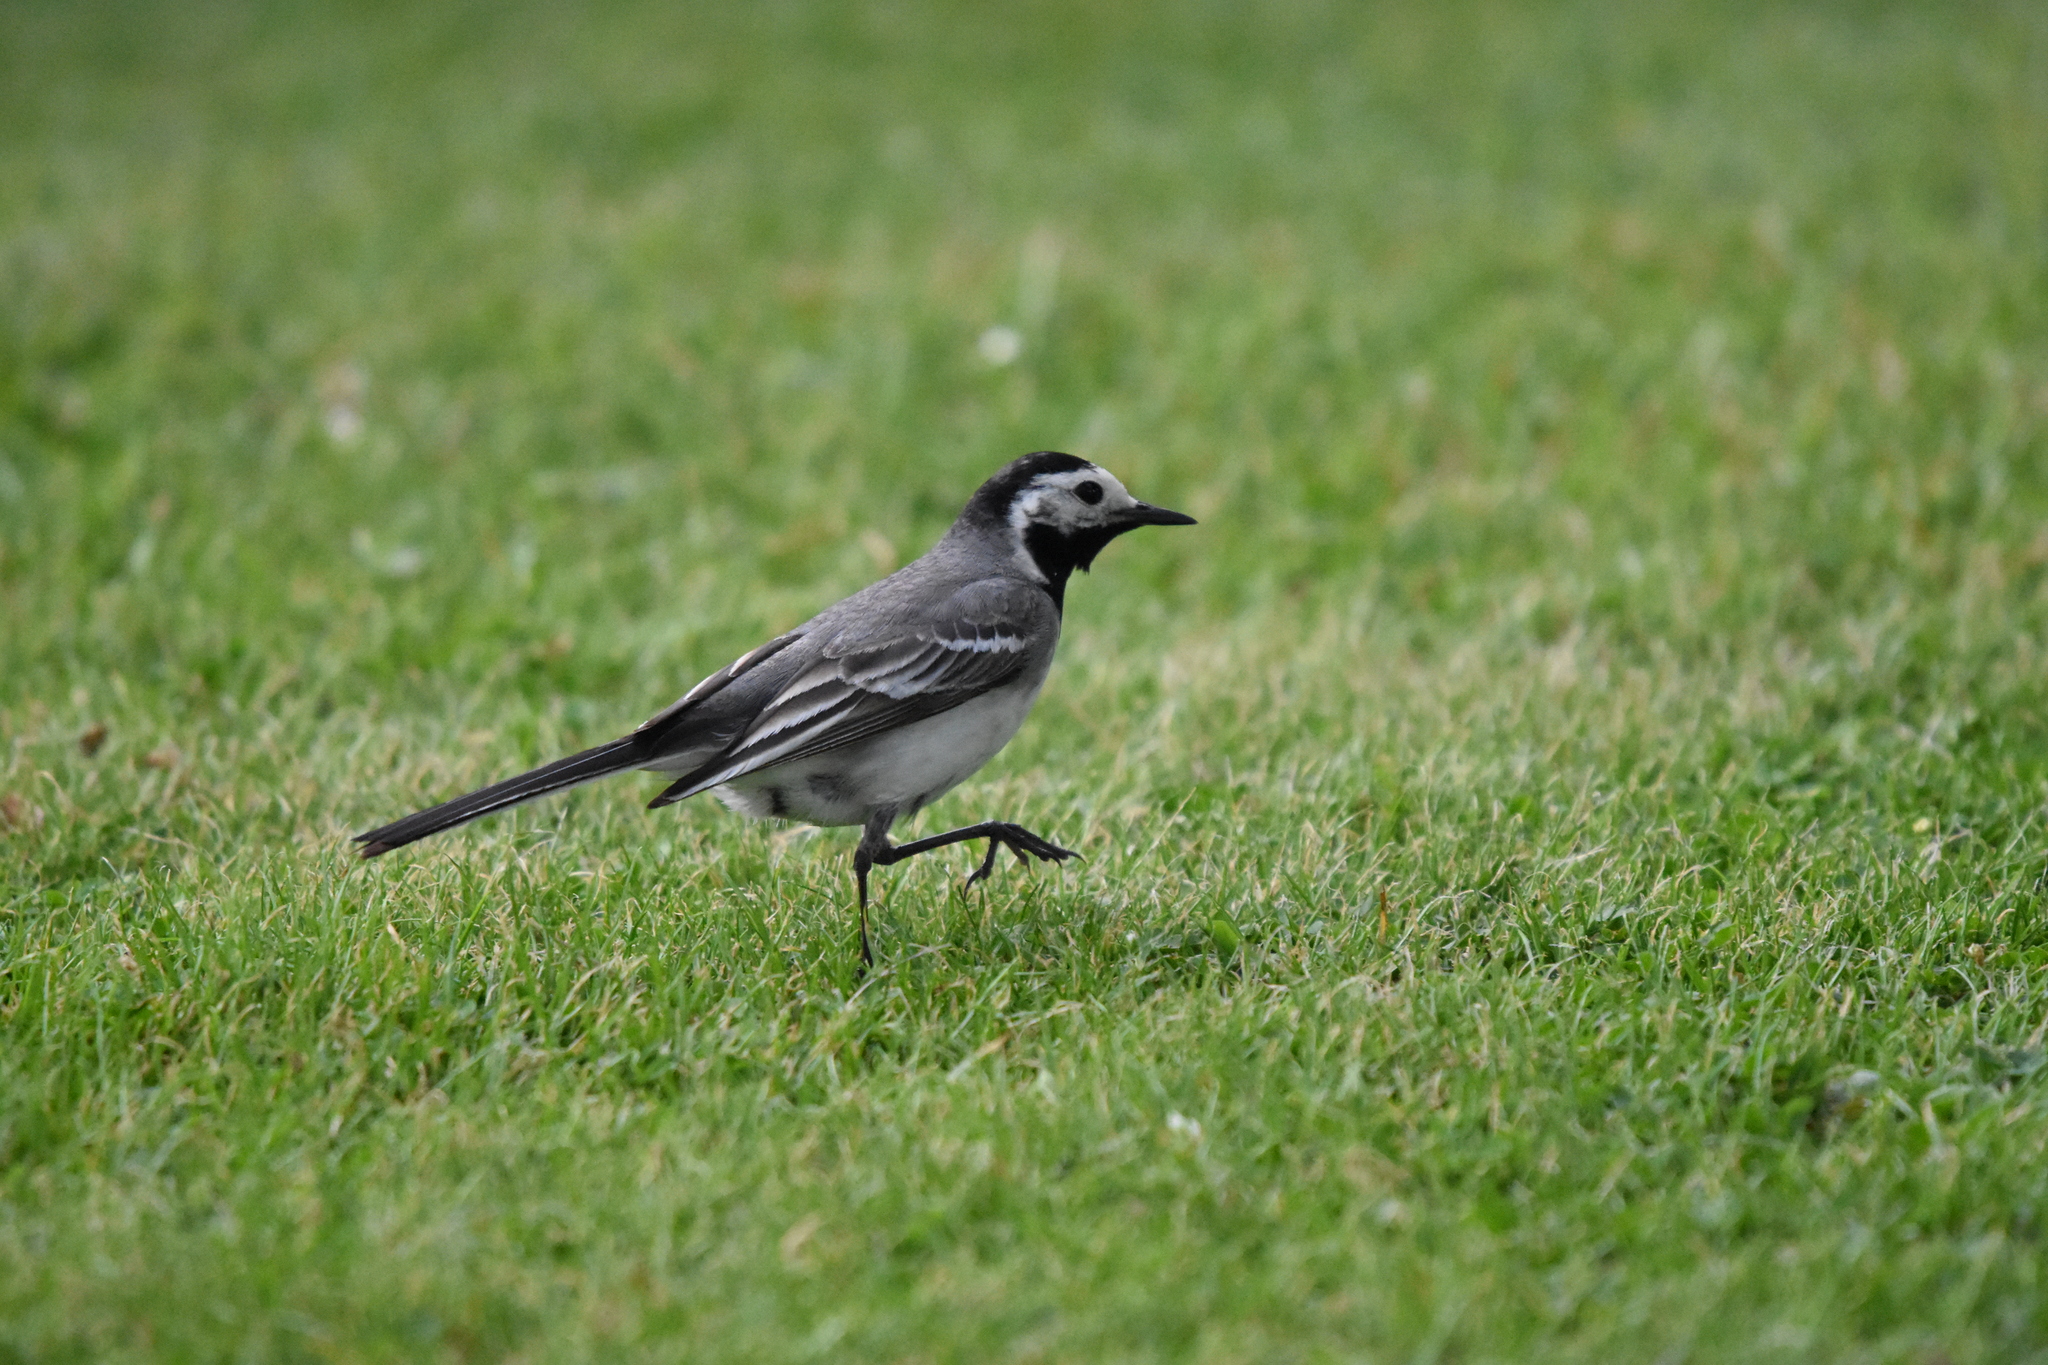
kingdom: Animalia
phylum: Chordata
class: Aves
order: Passeriformes
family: Motacillidae
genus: Motacilla
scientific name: Motacilla alba
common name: White wagtail
